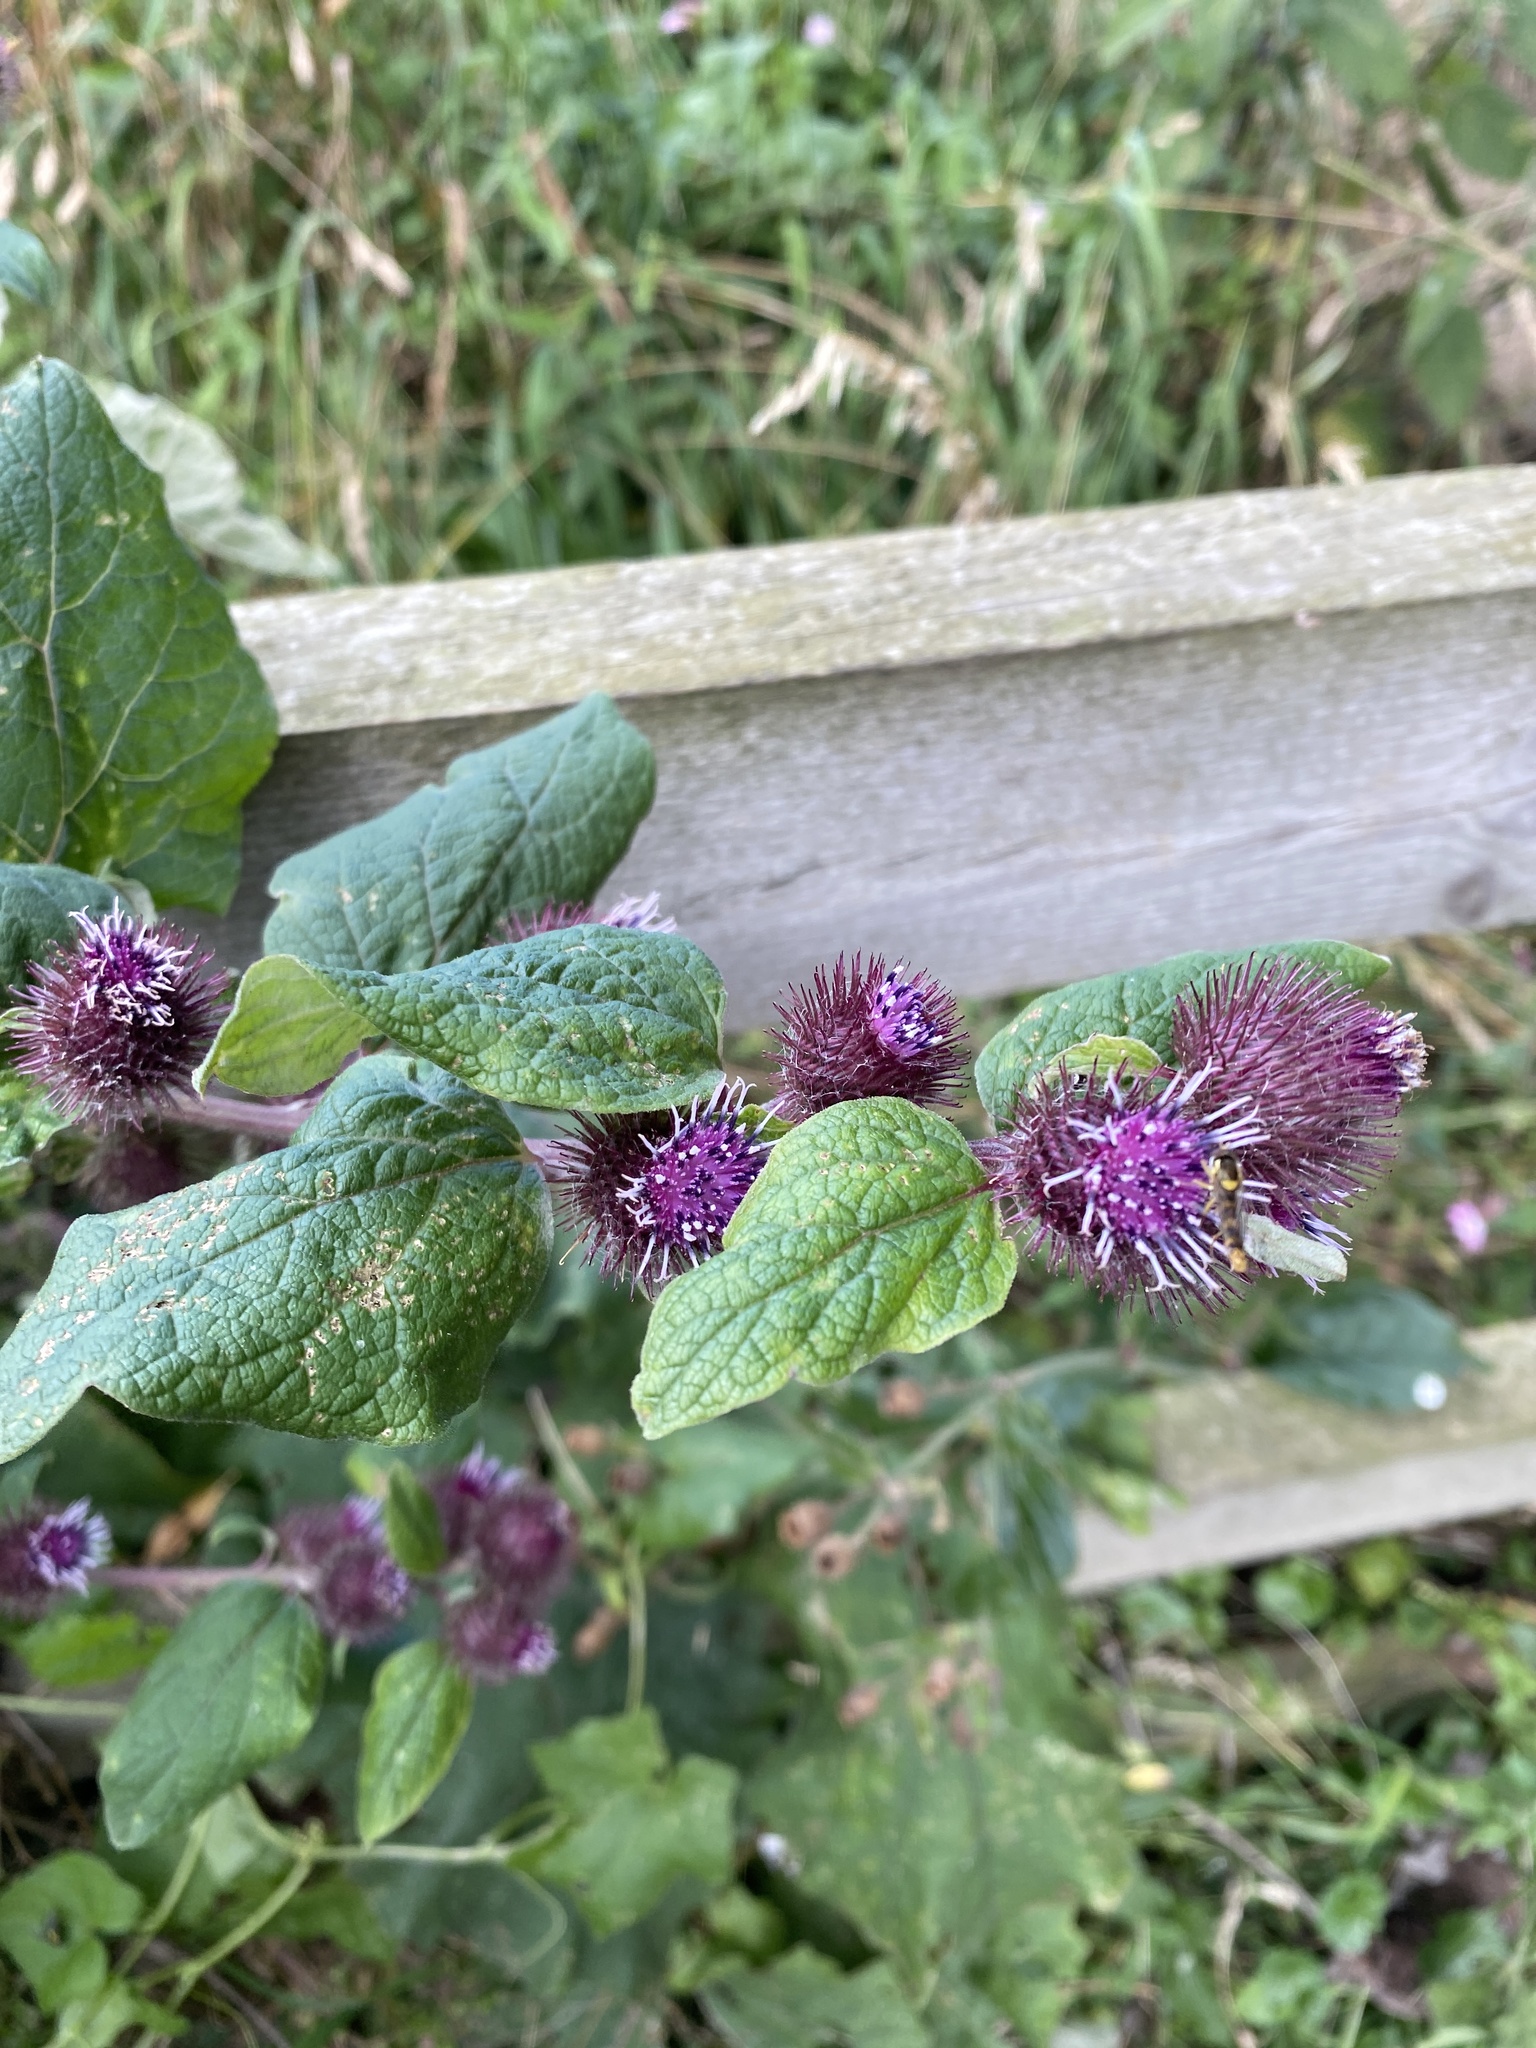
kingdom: Plantae
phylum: Tracheophyta
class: Magnoliopsida
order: Asterales
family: Asteraceae
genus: Arctium
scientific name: Arctium minus
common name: Lesser burdock
